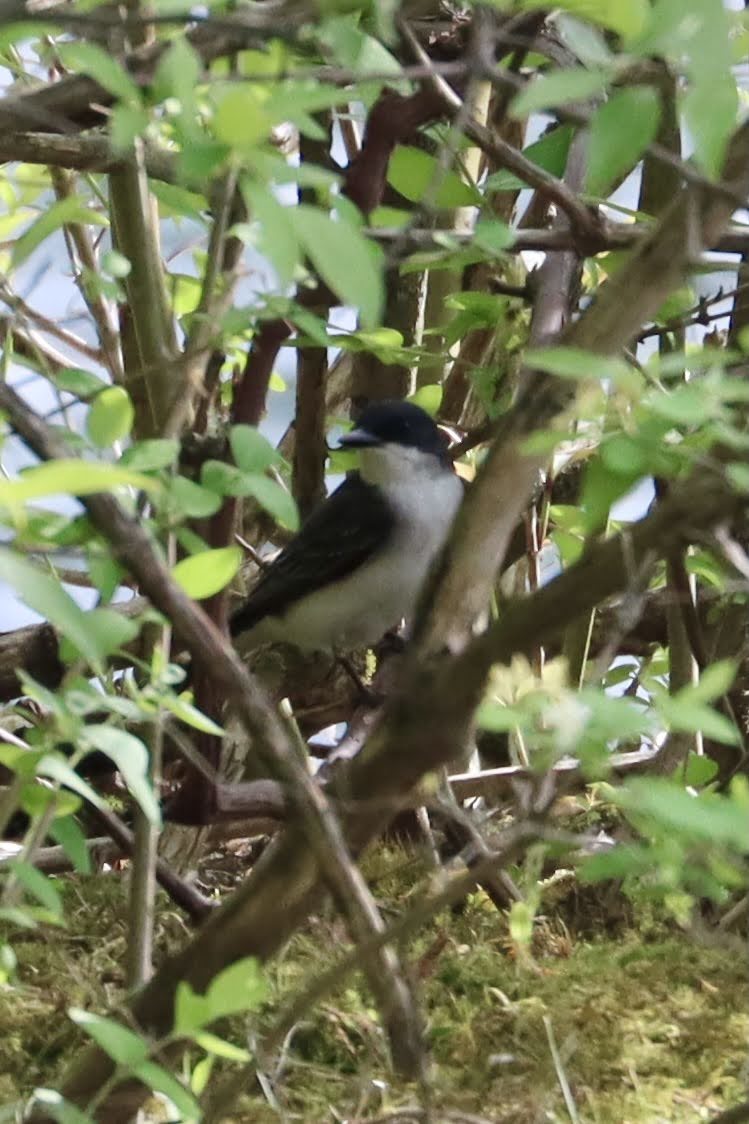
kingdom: Animalia
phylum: Chordata
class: Aves
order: Passeriformes
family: Tyrannidae
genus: Tyrannus
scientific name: Tyrannus tyrannus
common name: Eastern kingbird
